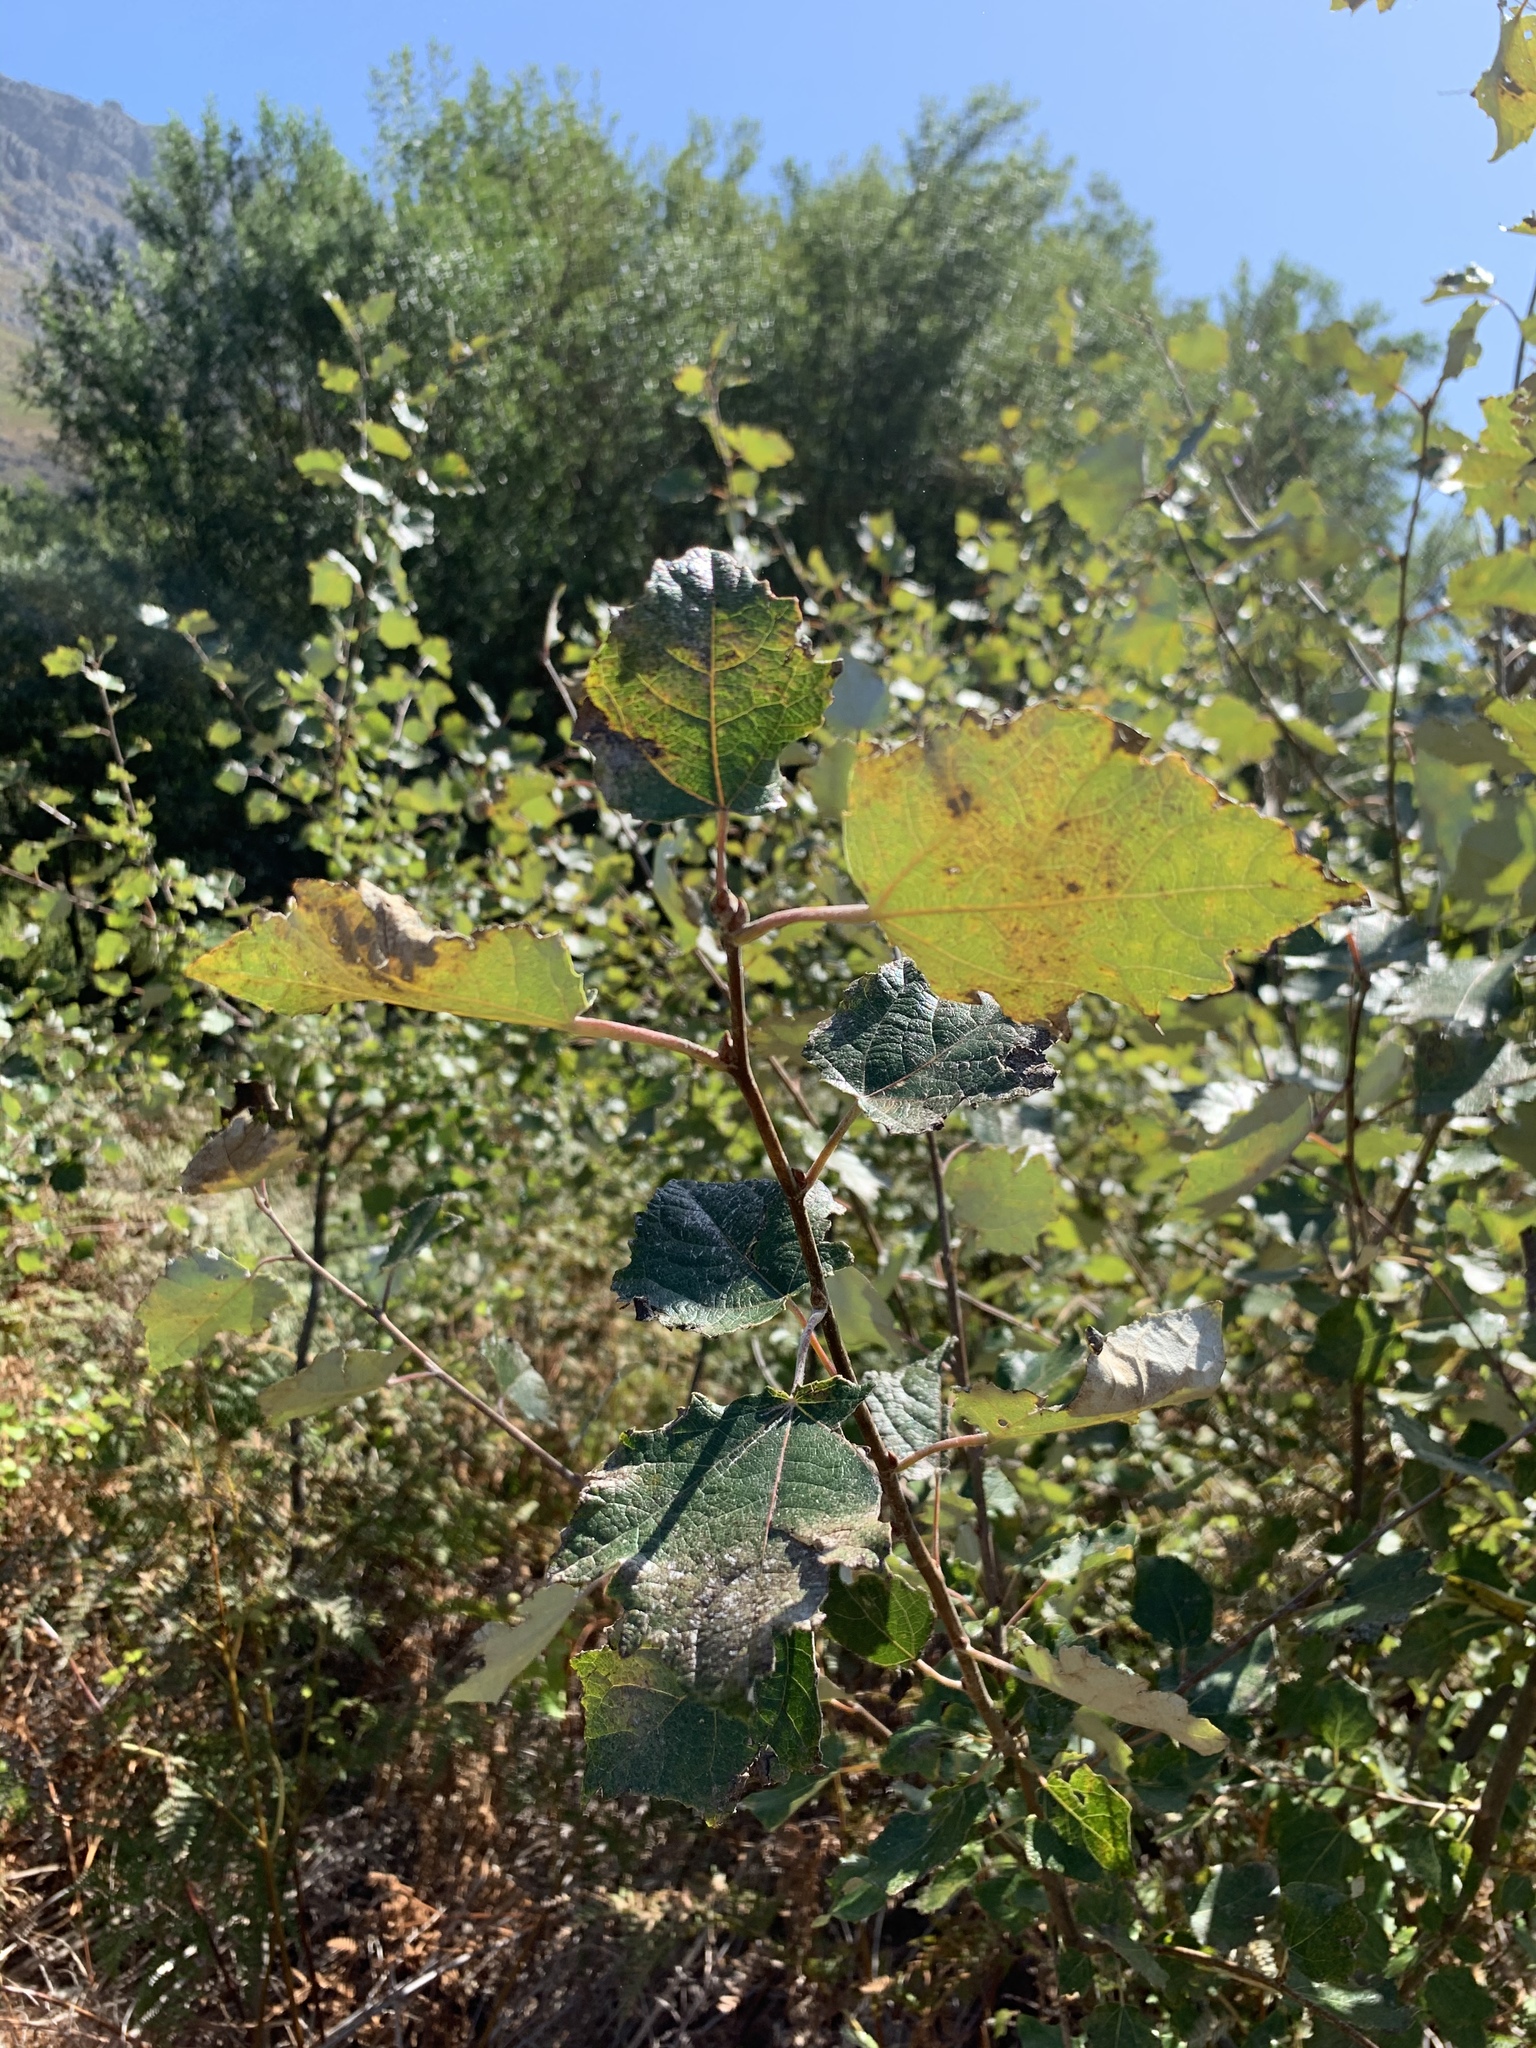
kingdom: Plantae
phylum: Tracheophyta
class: Magnoliopsida
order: Malpighiales
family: Salicaceae
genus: Populus
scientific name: Populus canescens
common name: Gray poplar
